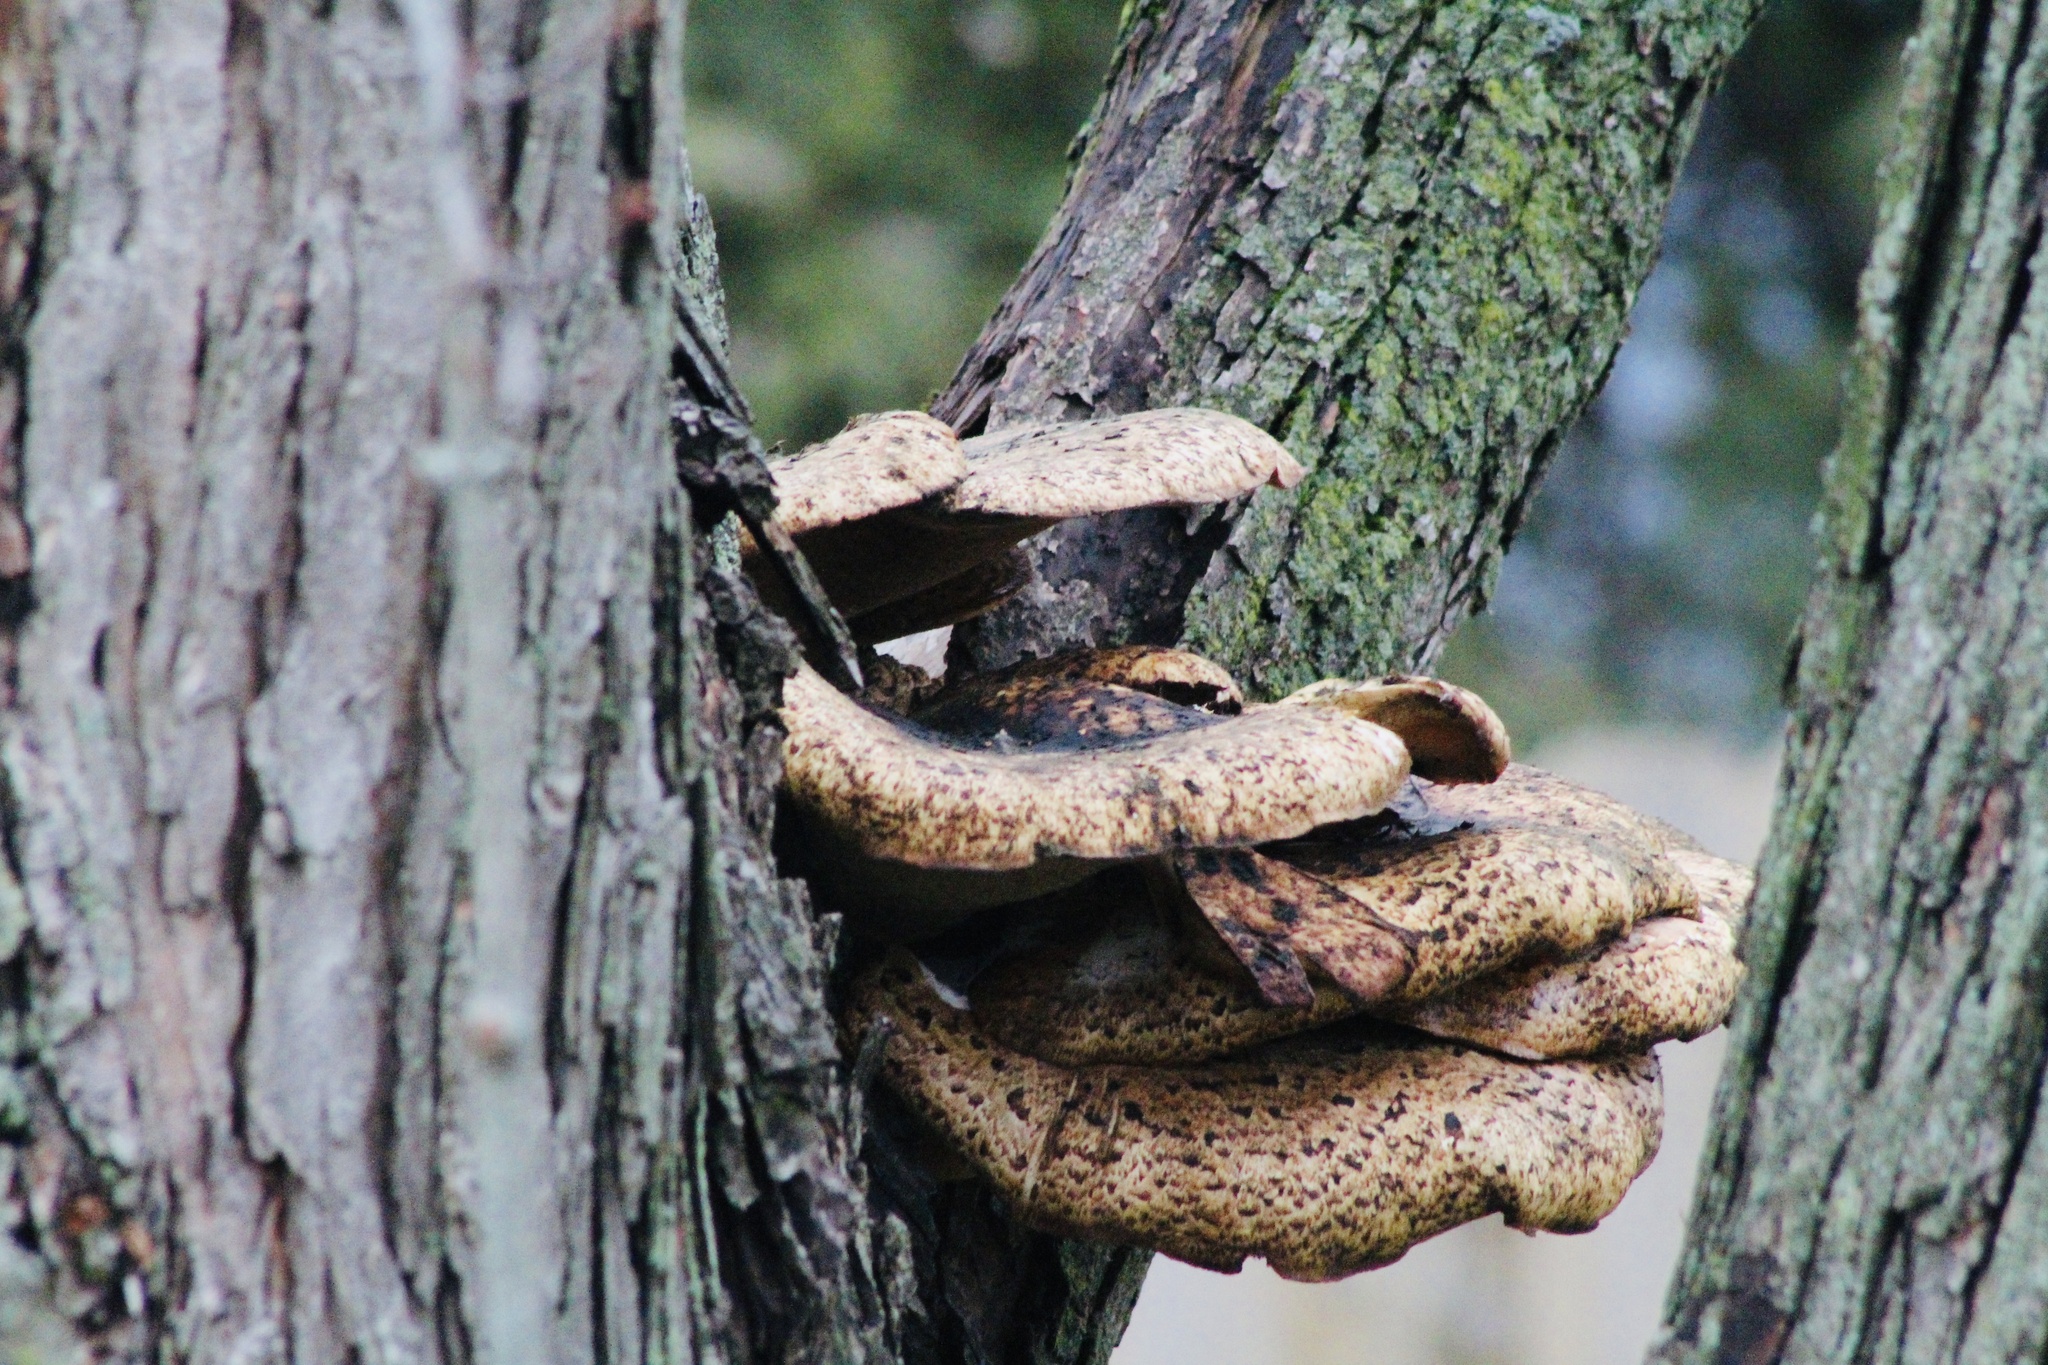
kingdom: Fungi
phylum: Basidiomycota
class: Agaricomycetes
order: Polyporales
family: Polyporaceae
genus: Cerioporus
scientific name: Cerioporus squamosus
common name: Dryad's saddle
